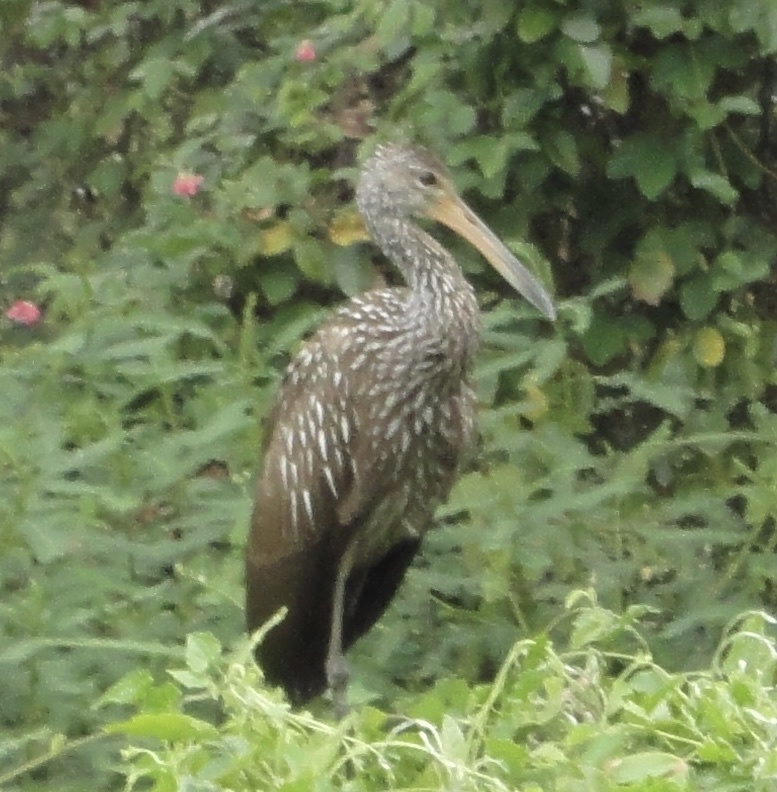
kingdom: Animalia
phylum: Chordata
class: Aves
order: Gruiformes
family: Aramidae
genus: Aramus
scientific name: Aramus guarauna
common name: Limpkin
